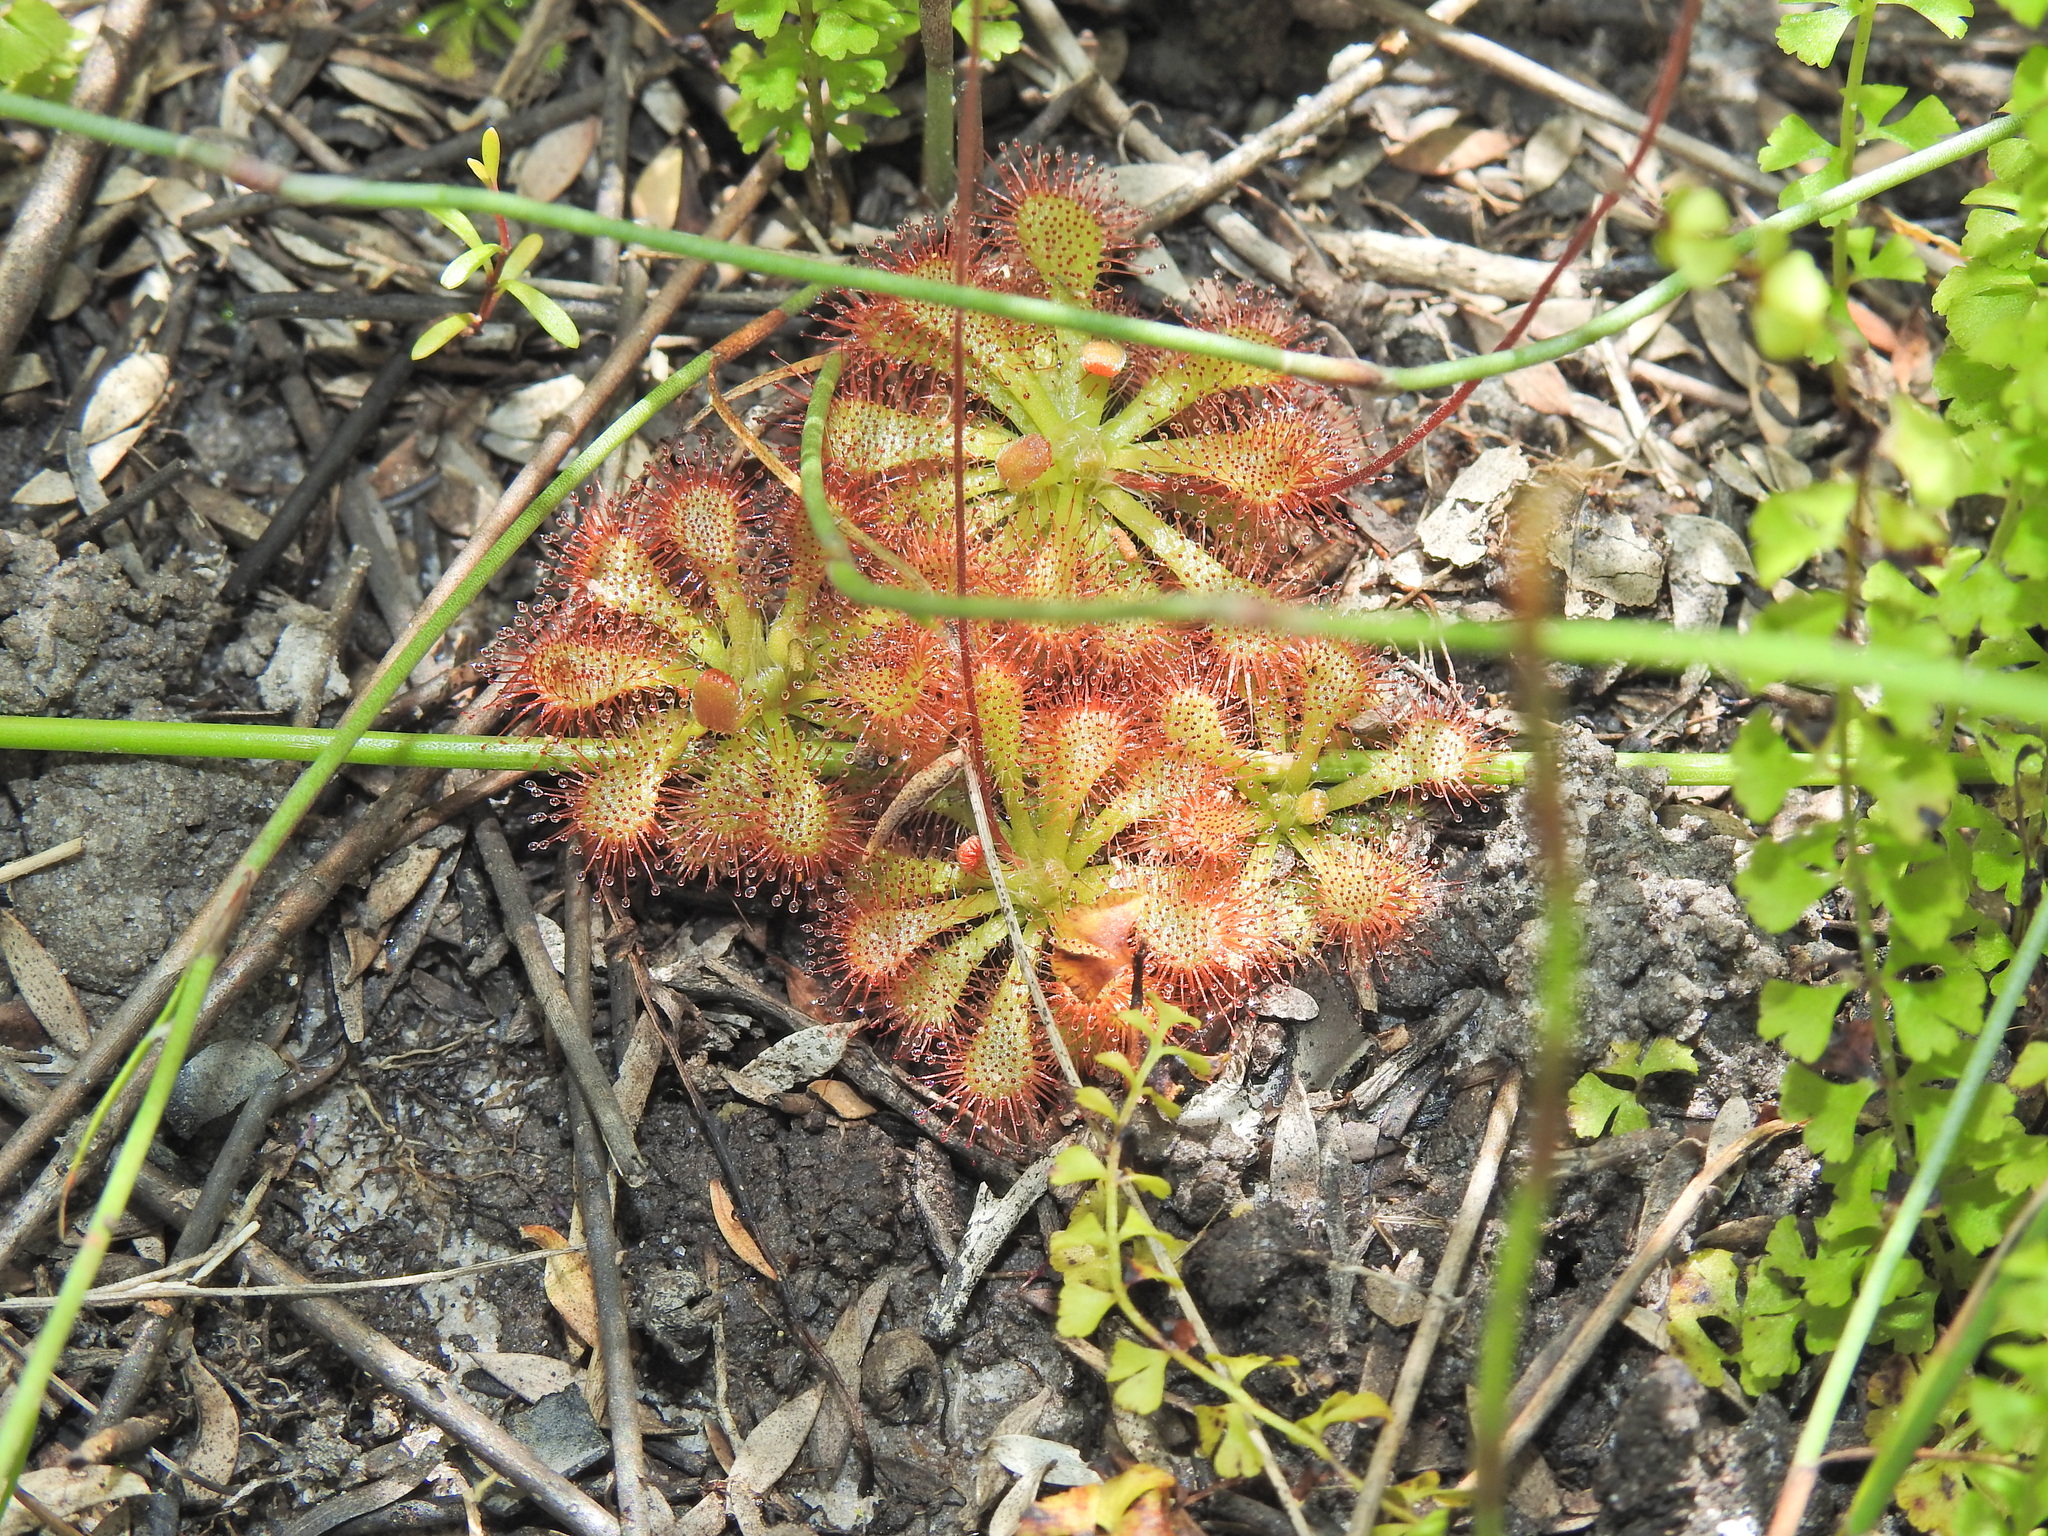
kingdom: Plantae
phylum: Tracheophyta
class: Magnoliopsida
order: Caryophyllales
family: Droseraceae
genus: Drosera
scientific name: Drosera spatulata
